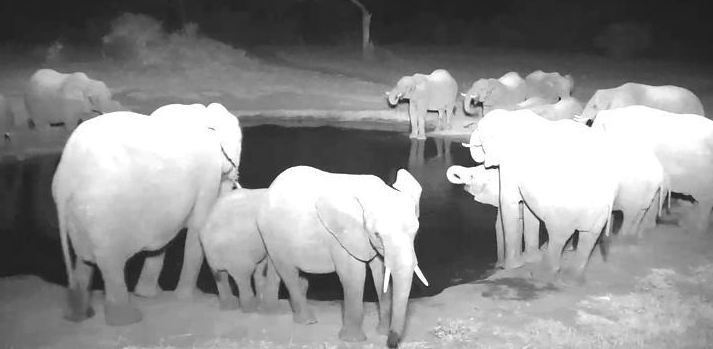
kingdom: Animalia
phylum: Chordata
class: Mammalia
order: Proboscidea
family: Elephantidae
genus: Loxodonta
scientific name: Loxodonta africana
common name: African elephant
